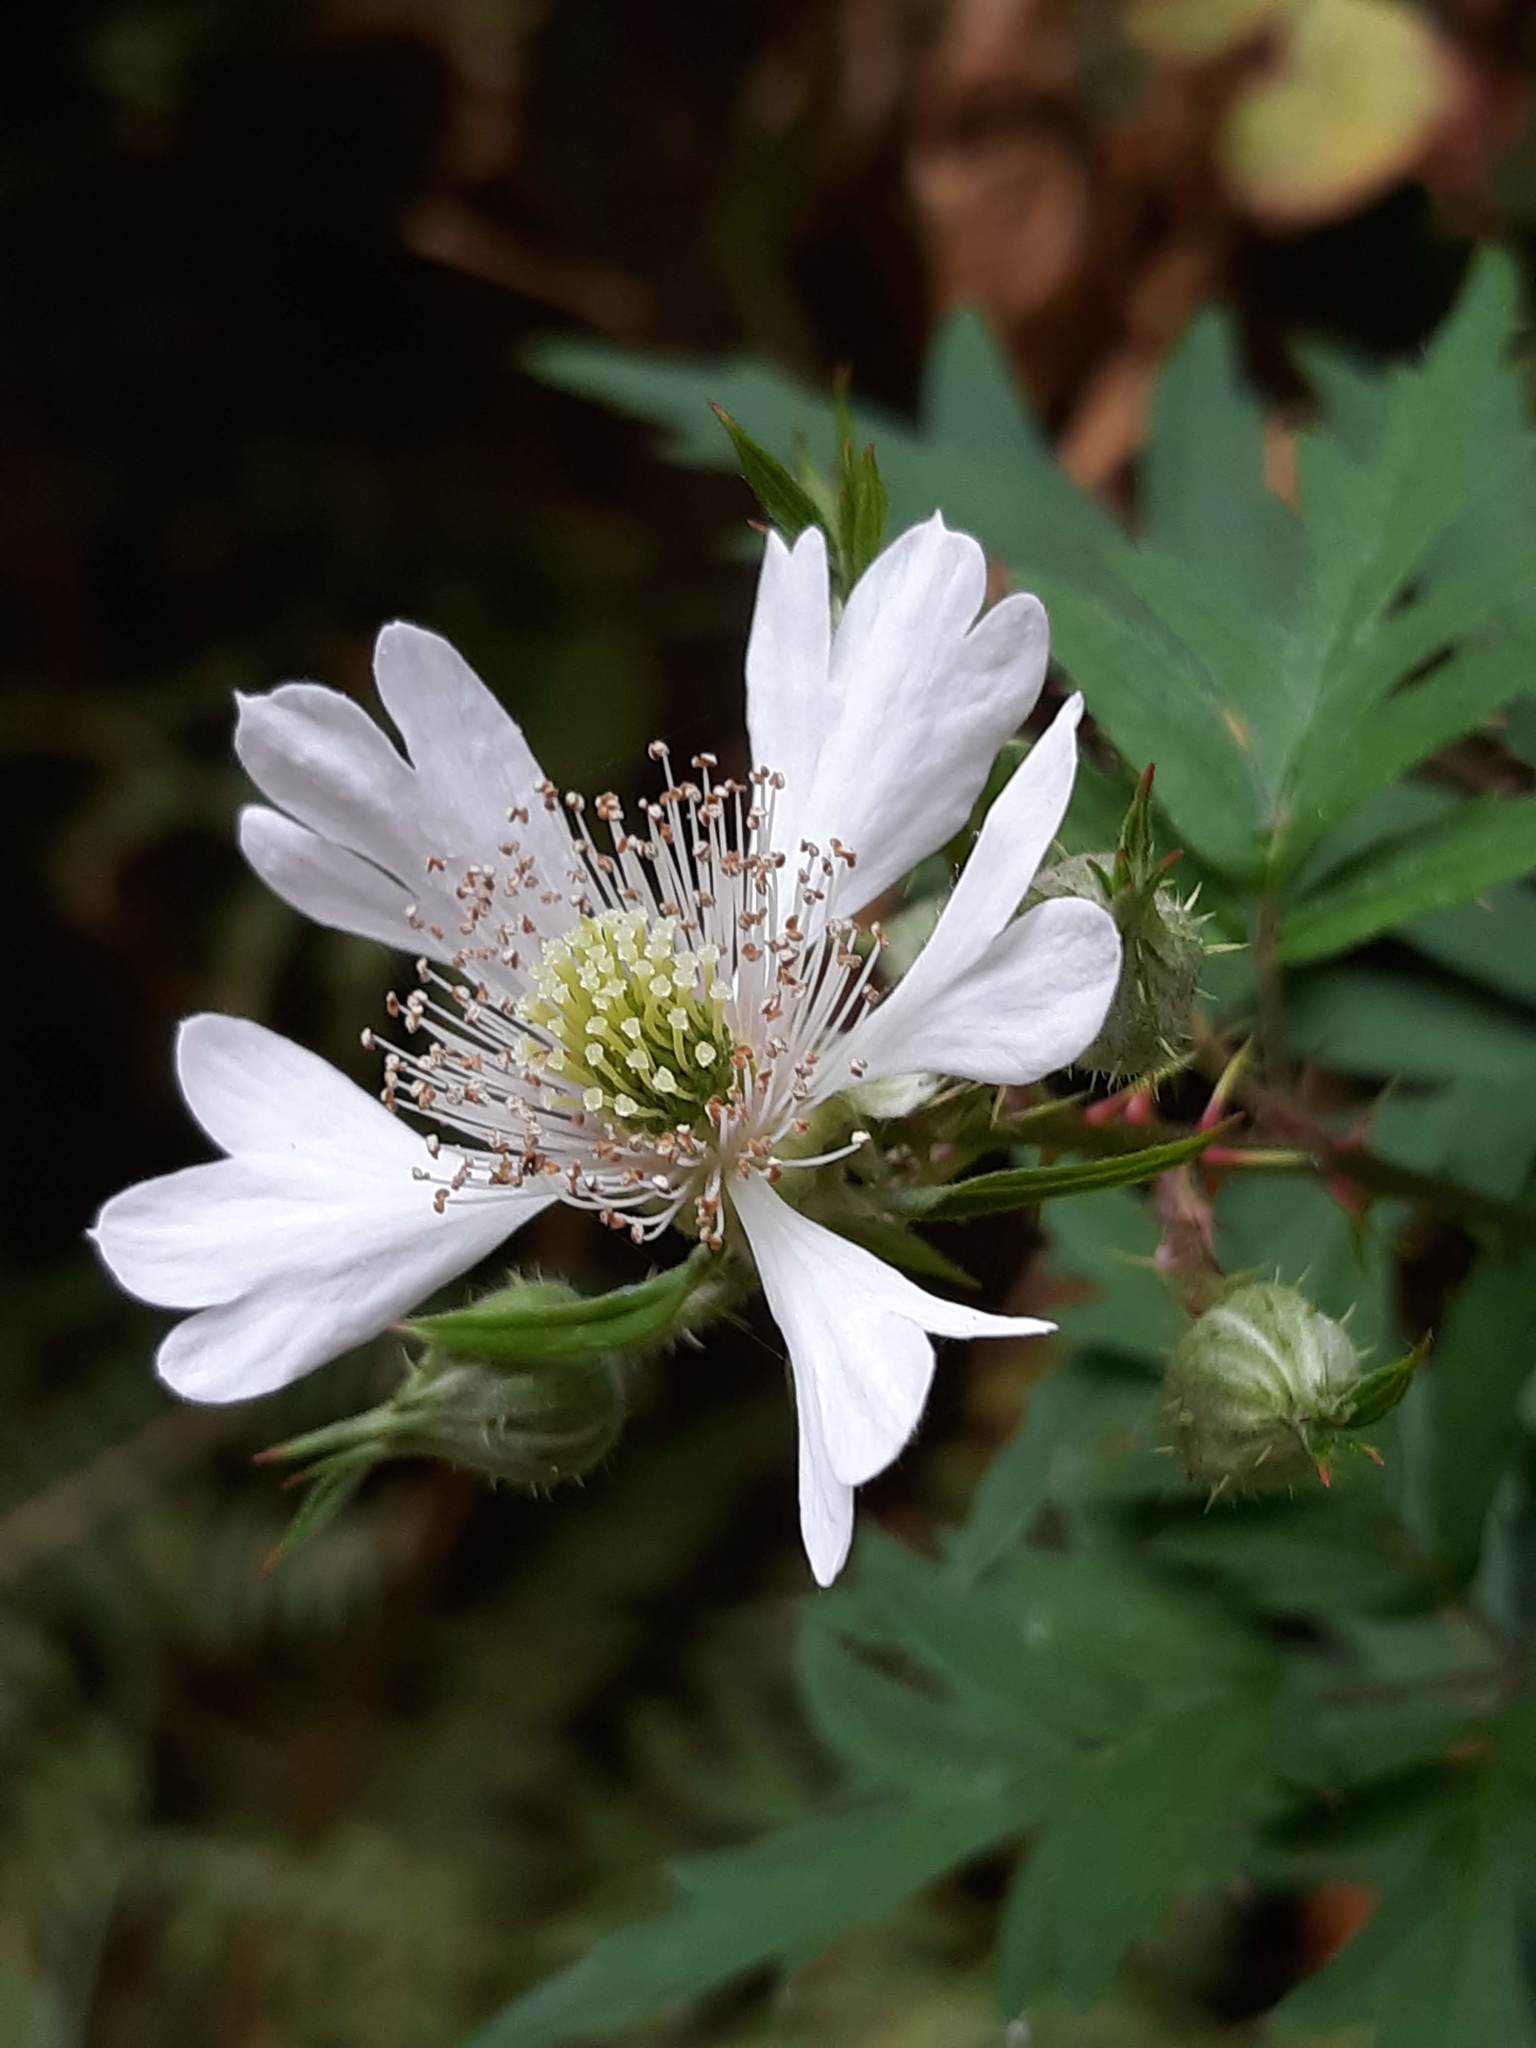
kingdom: Plantae
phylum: Tracheophyta
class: Magnoliopsida
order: Rosales
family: Rosaceae
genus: Rubus
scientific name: Rubus laciniatus
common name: Evergreen blackberry
